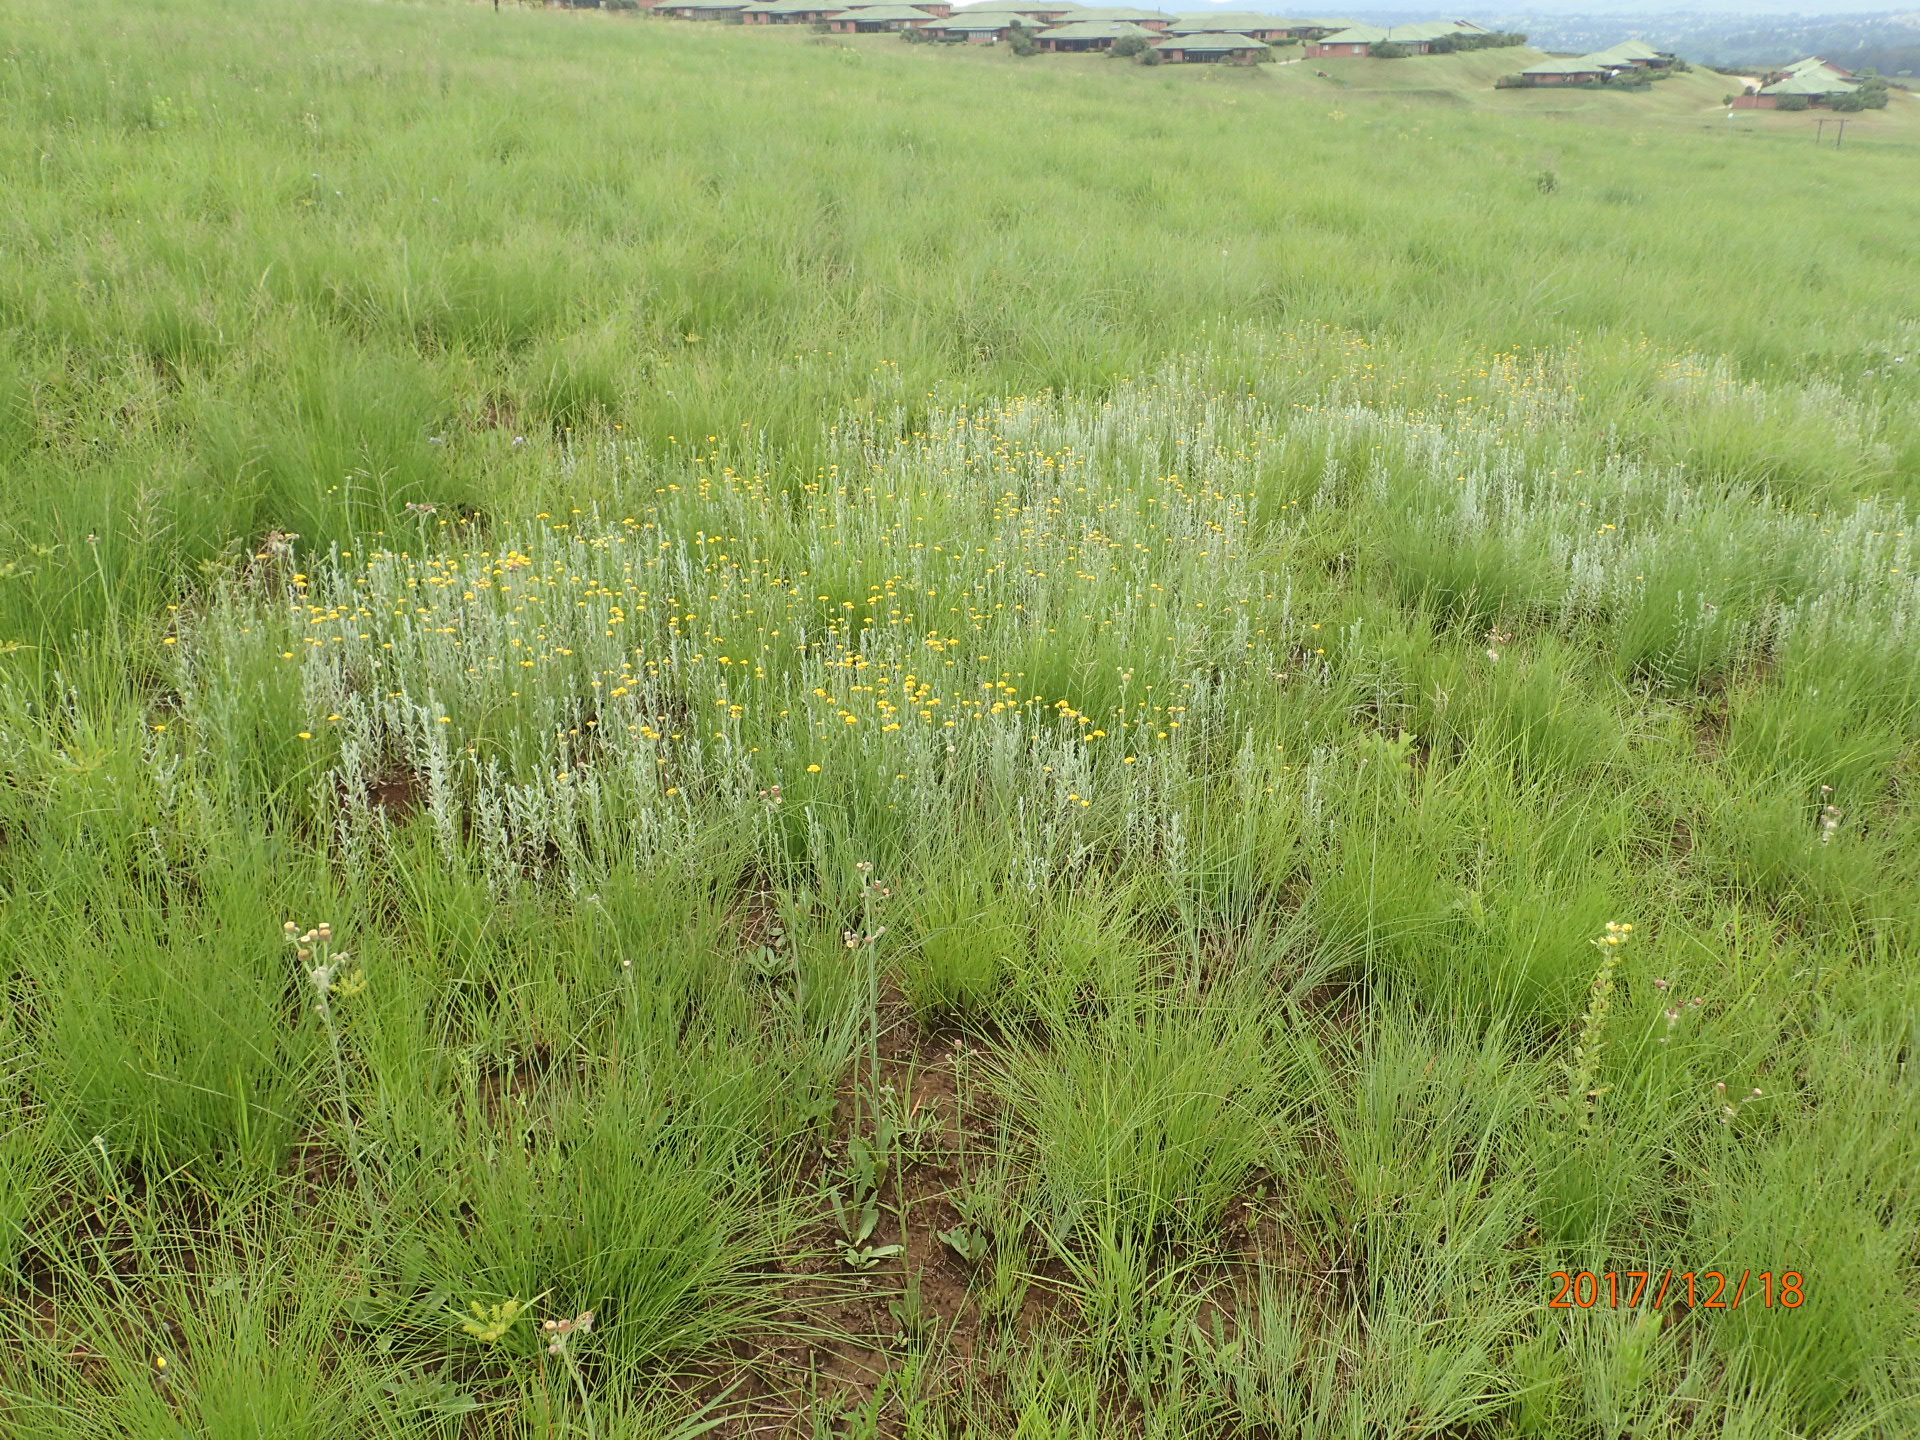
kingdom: Plantae
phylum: Tracheophyta
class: Magnoliopsida
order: Asterales
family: Asteraceae
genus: Erigeron
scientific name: Erigeron primulifolius
